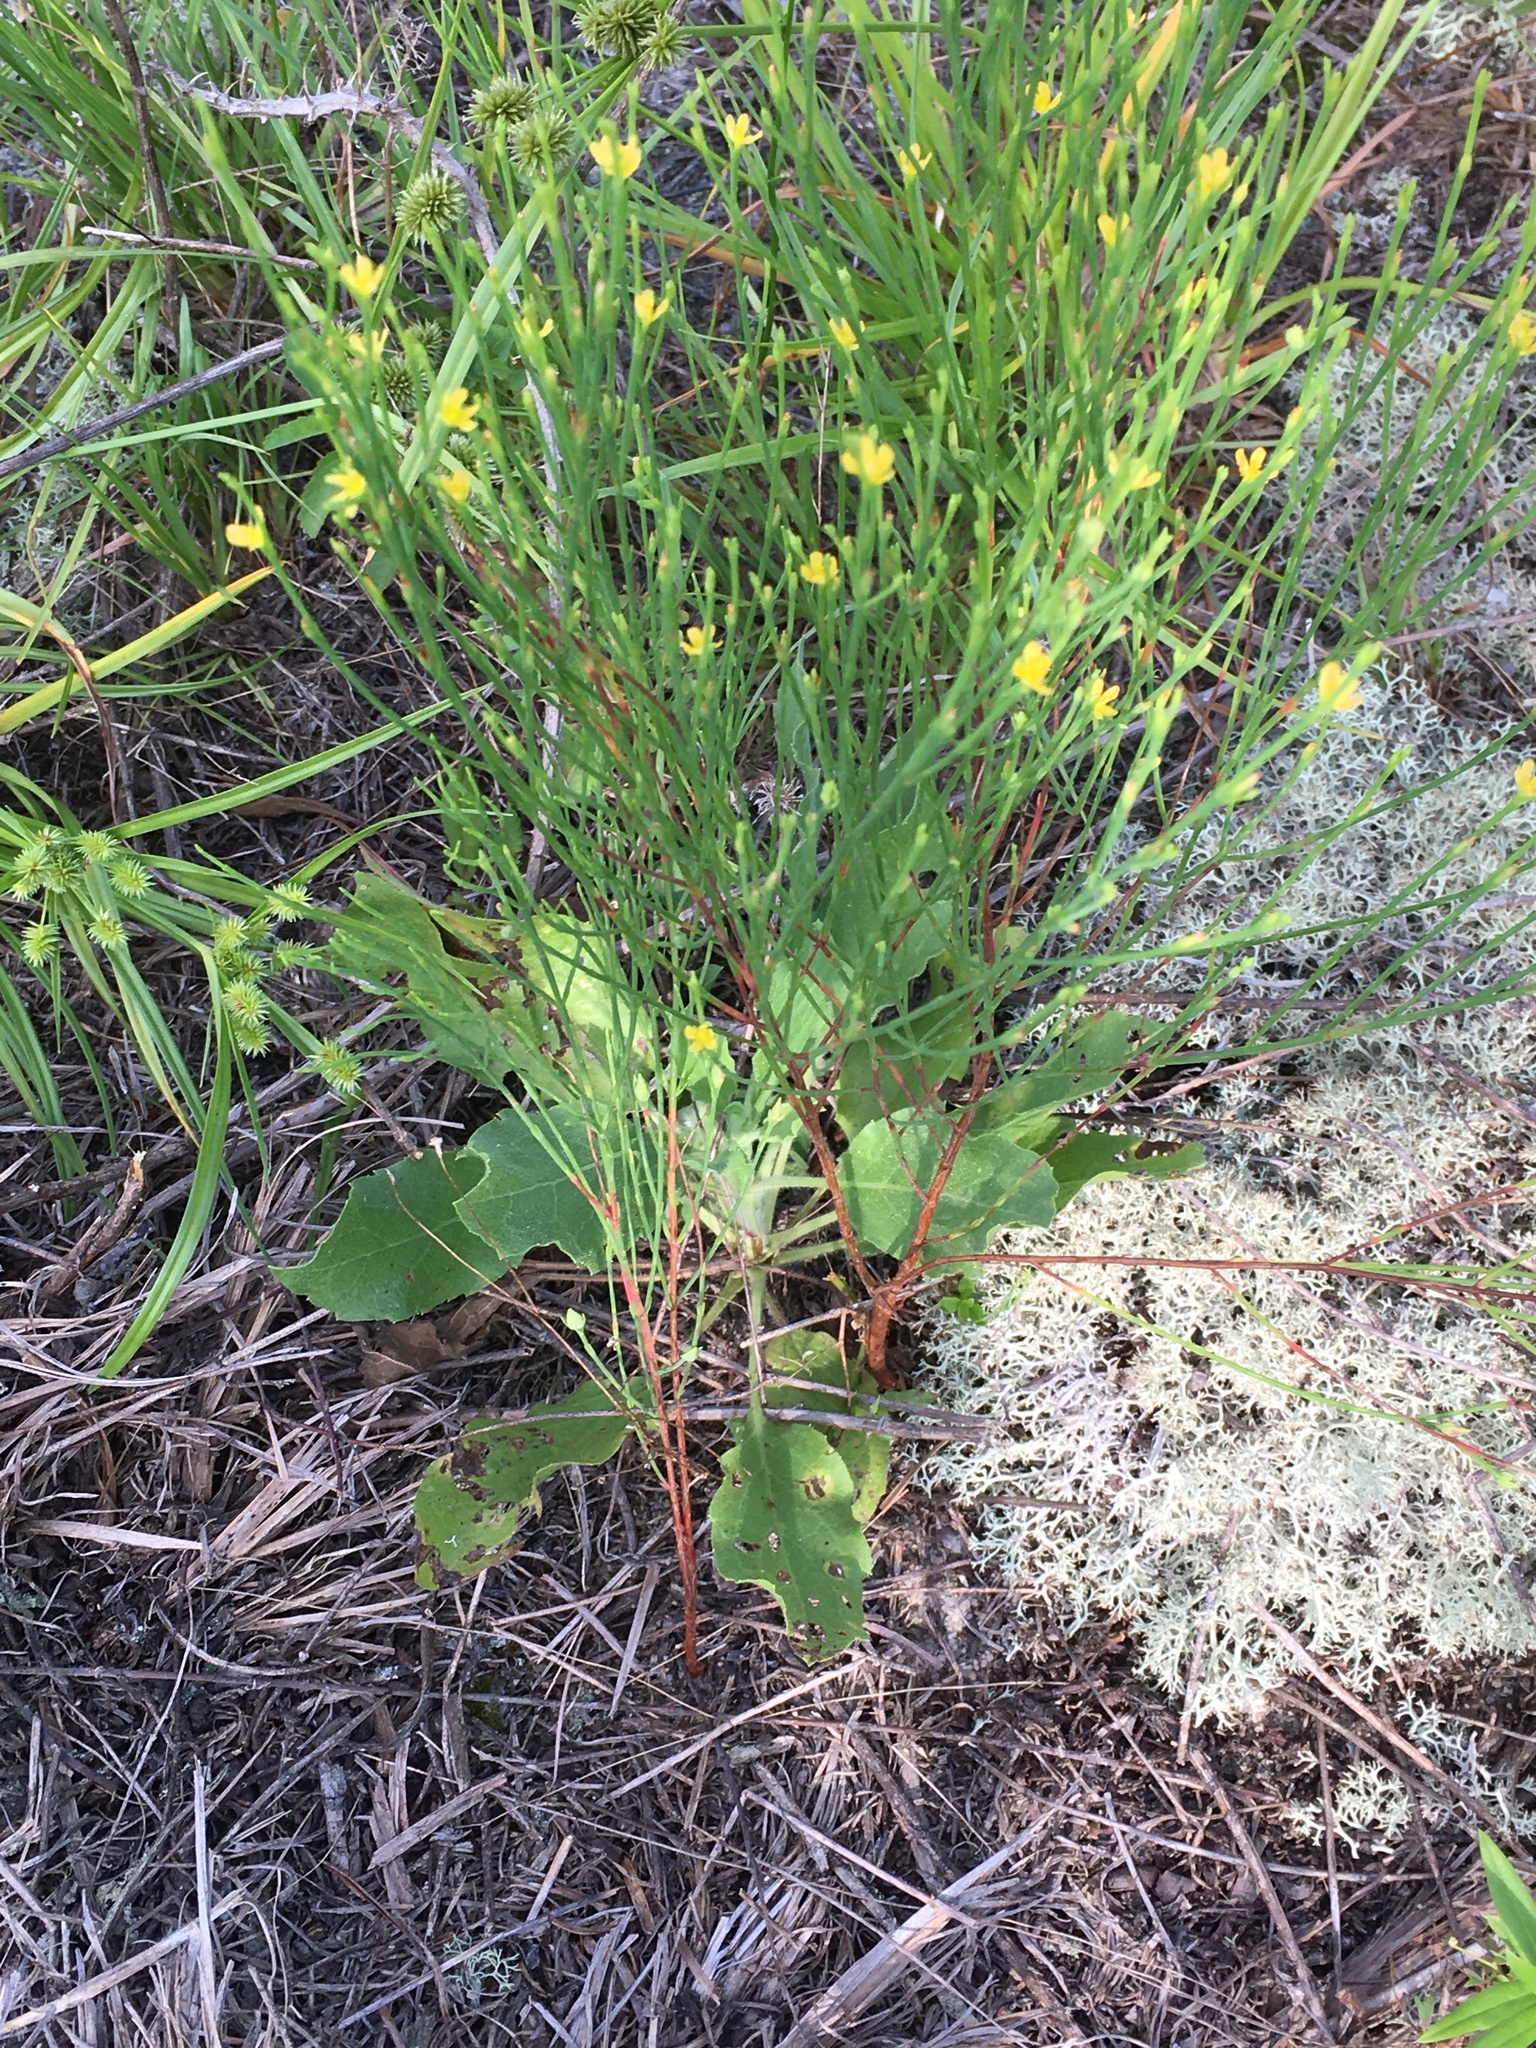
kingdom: Plantae
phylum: Tracheophyta
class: Magnoliopsida
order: Malpighiales
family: Hypericaceae
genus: Hypericum
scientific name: Hypericum gentianoides
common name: Gentian-leaved st. john's-wort
